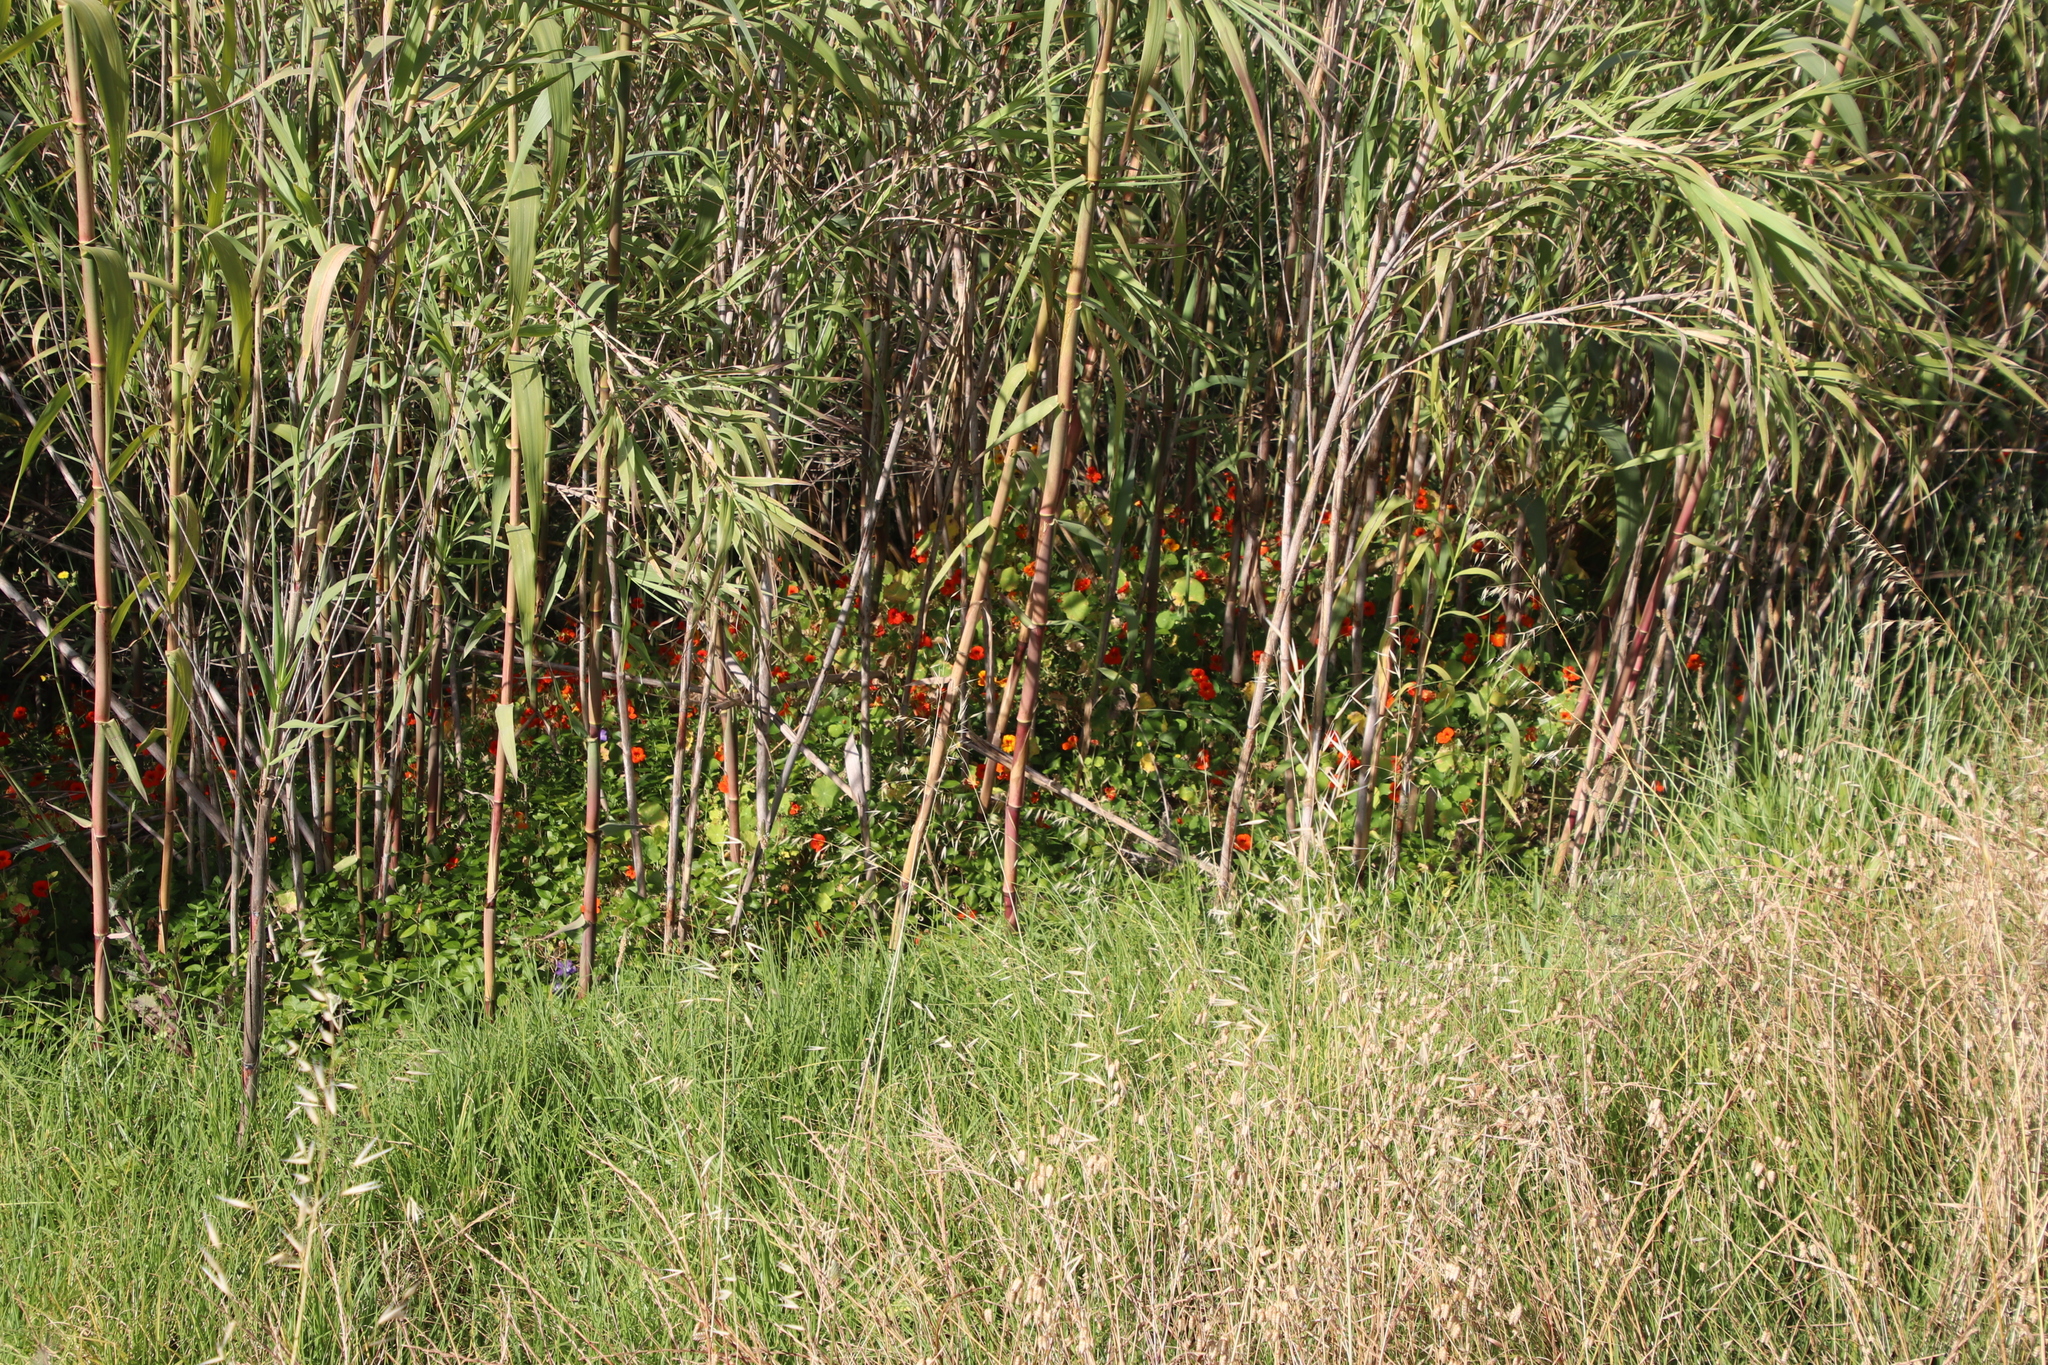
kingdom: Plantae
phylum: Tracheophyta
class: Magnoliopsida
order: Brassicales
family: Tropaeolaceae
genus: Tropaeolum
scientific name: Tropaeolum majus
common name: Nasturtium
